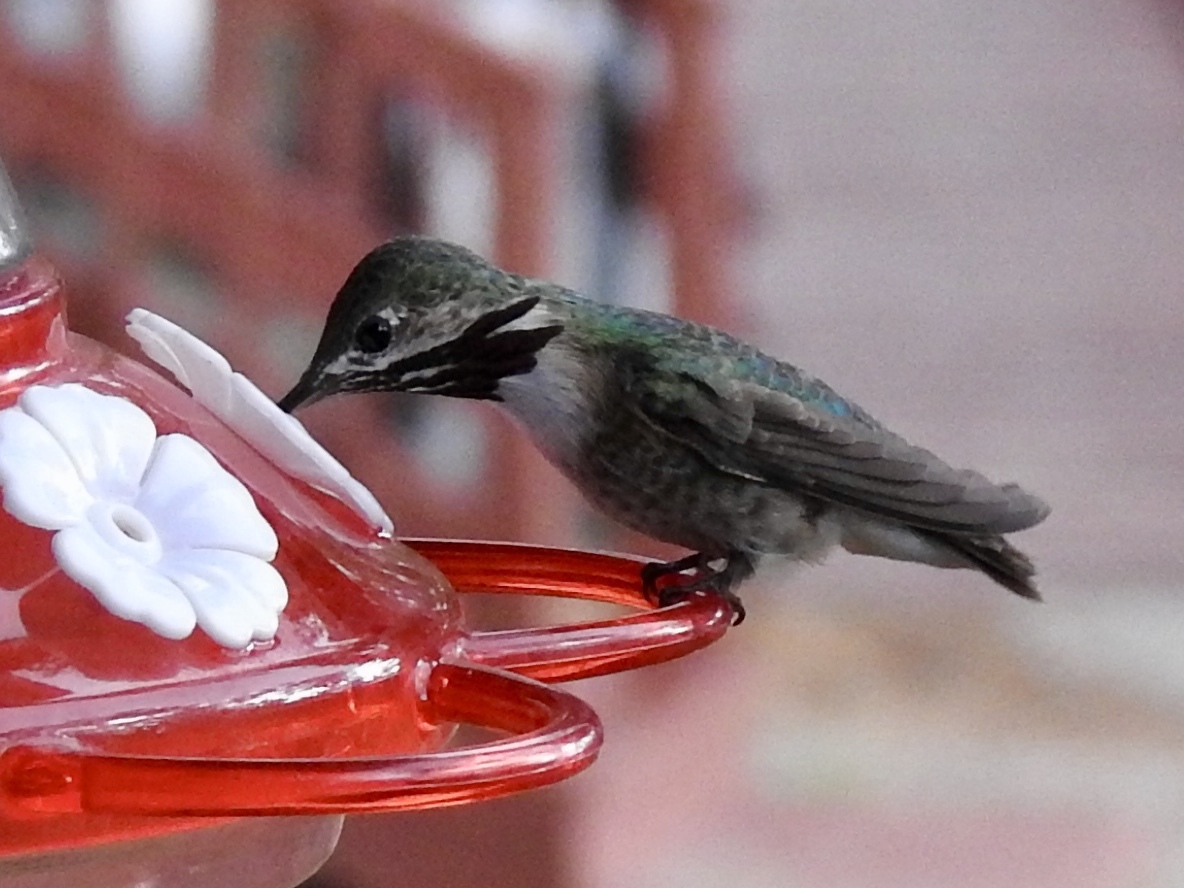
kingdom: Animalia
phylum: Chordata
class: Aves
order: Apodiformes
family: Trochilidae
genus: Selasphorus
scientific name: Selasphorus calliope
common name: Calliope hummingbird
